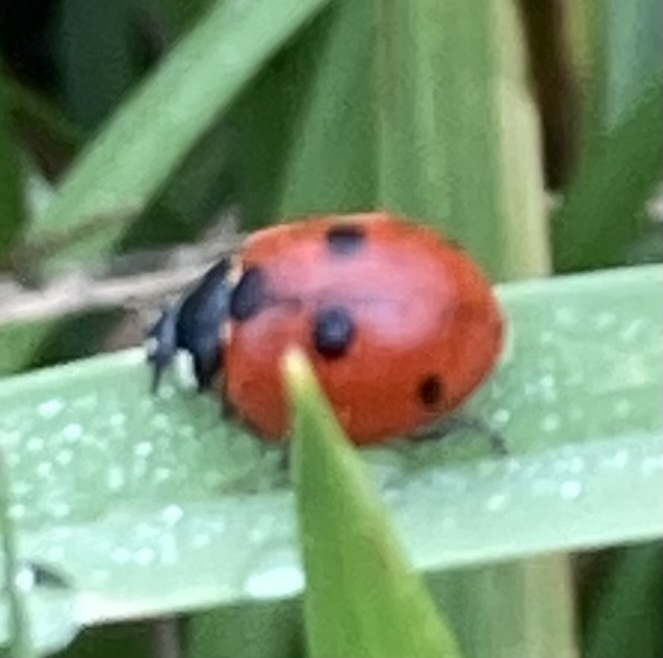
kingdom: Animalia
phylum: Arthropoda
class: Insecta
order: Coleoptera
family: Coccinellidae
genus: Coccinella
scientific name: Coccinella septempunctata
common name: Sevenspotted lady beetle
